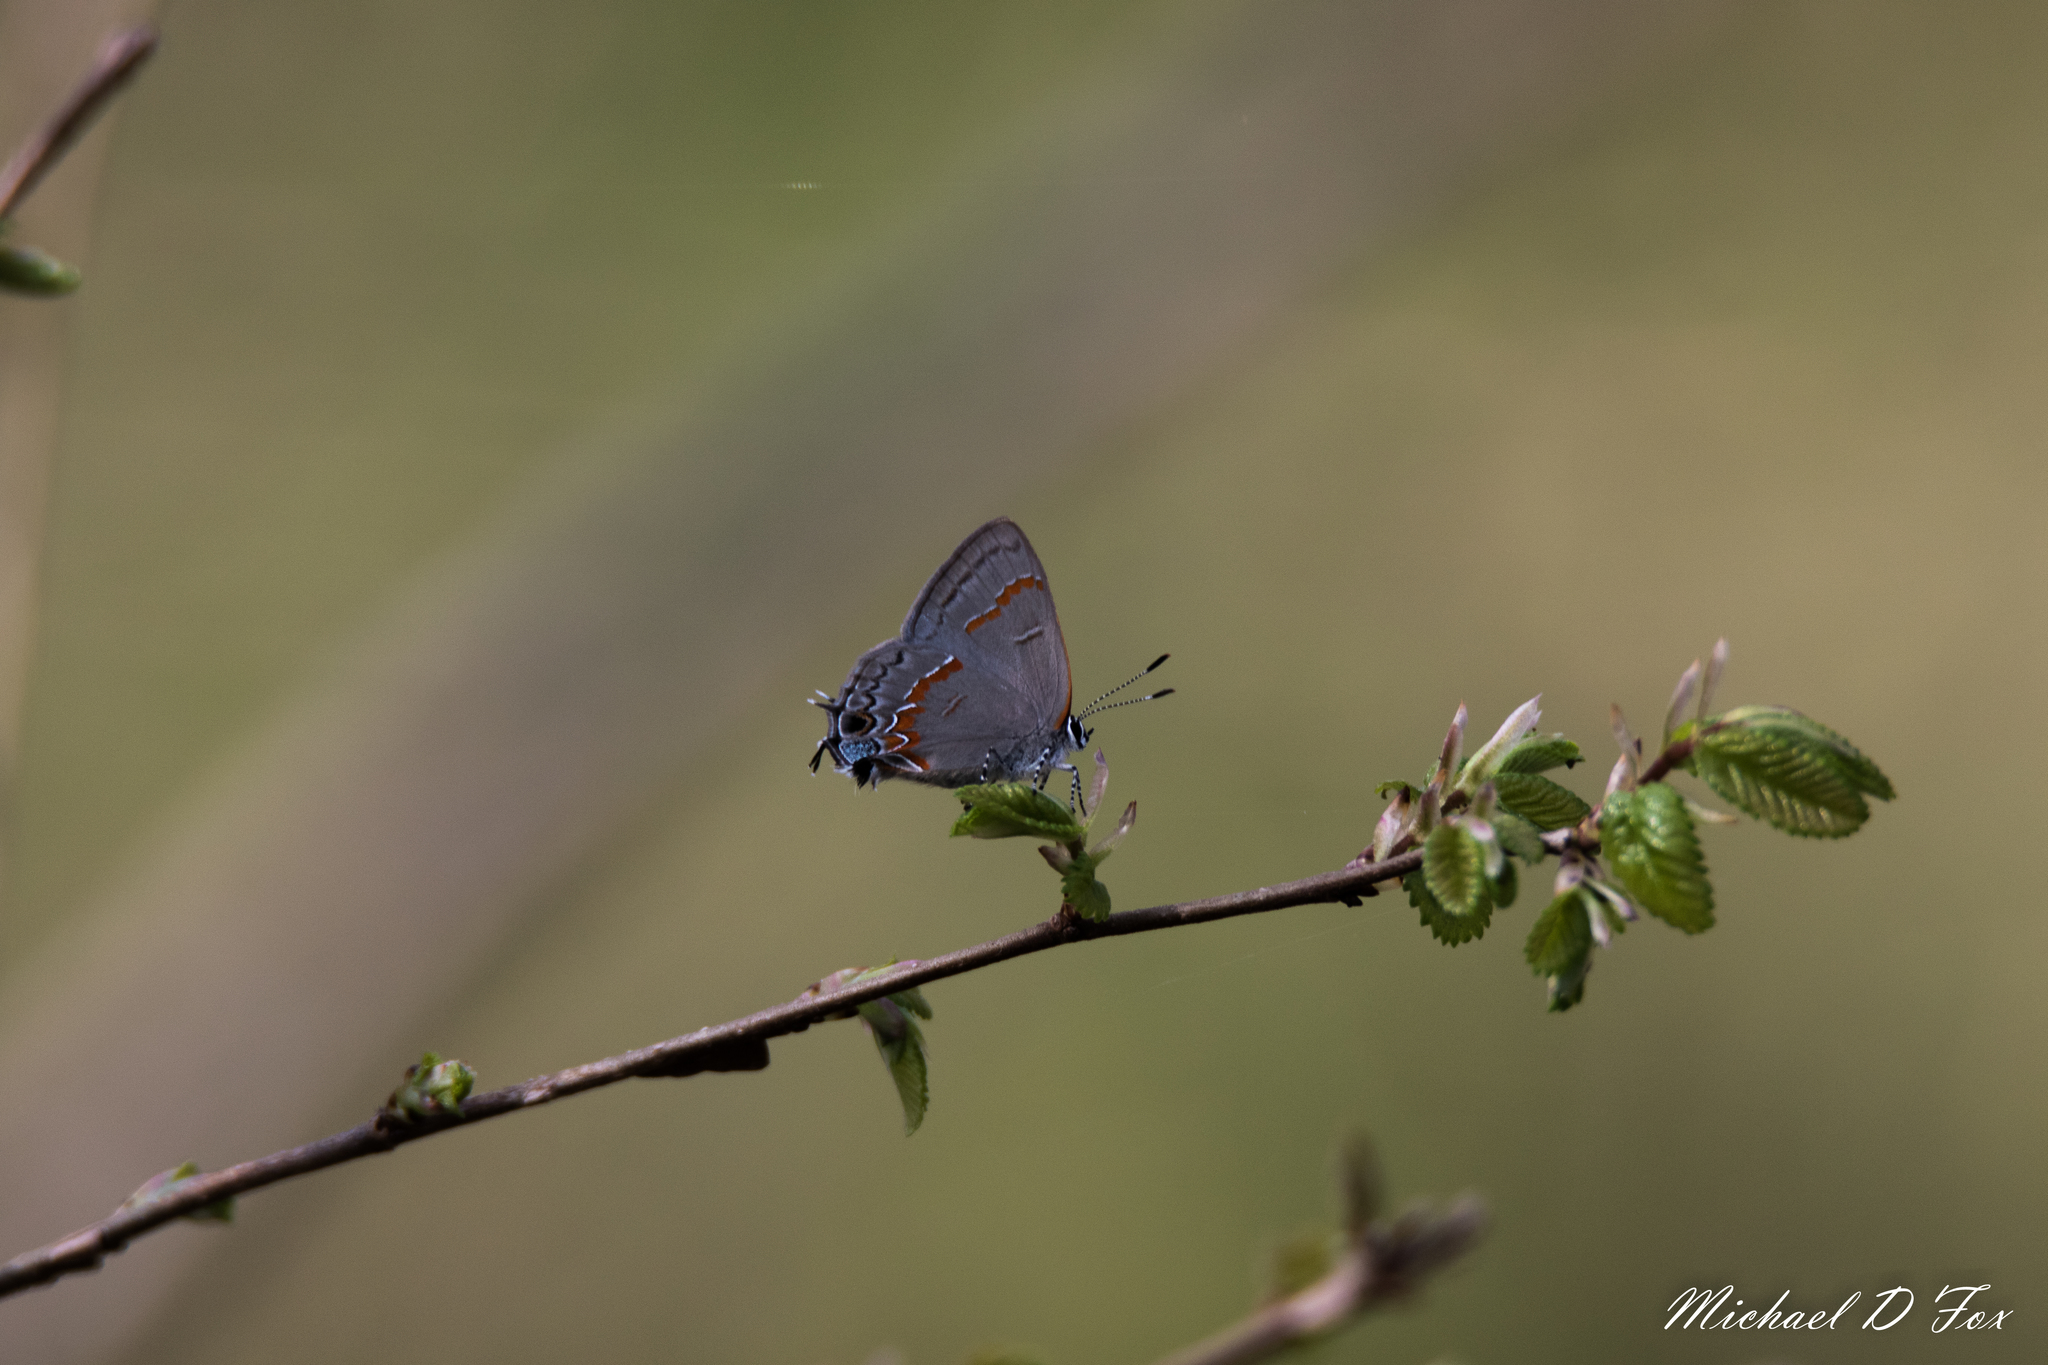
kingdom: Animalia
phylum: Arthropoda
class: Insecta
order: Lepidoptera
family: Lycaenidae
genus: Calycopis
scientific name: Calycopis cecrops
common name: Red-banded hairstreak
